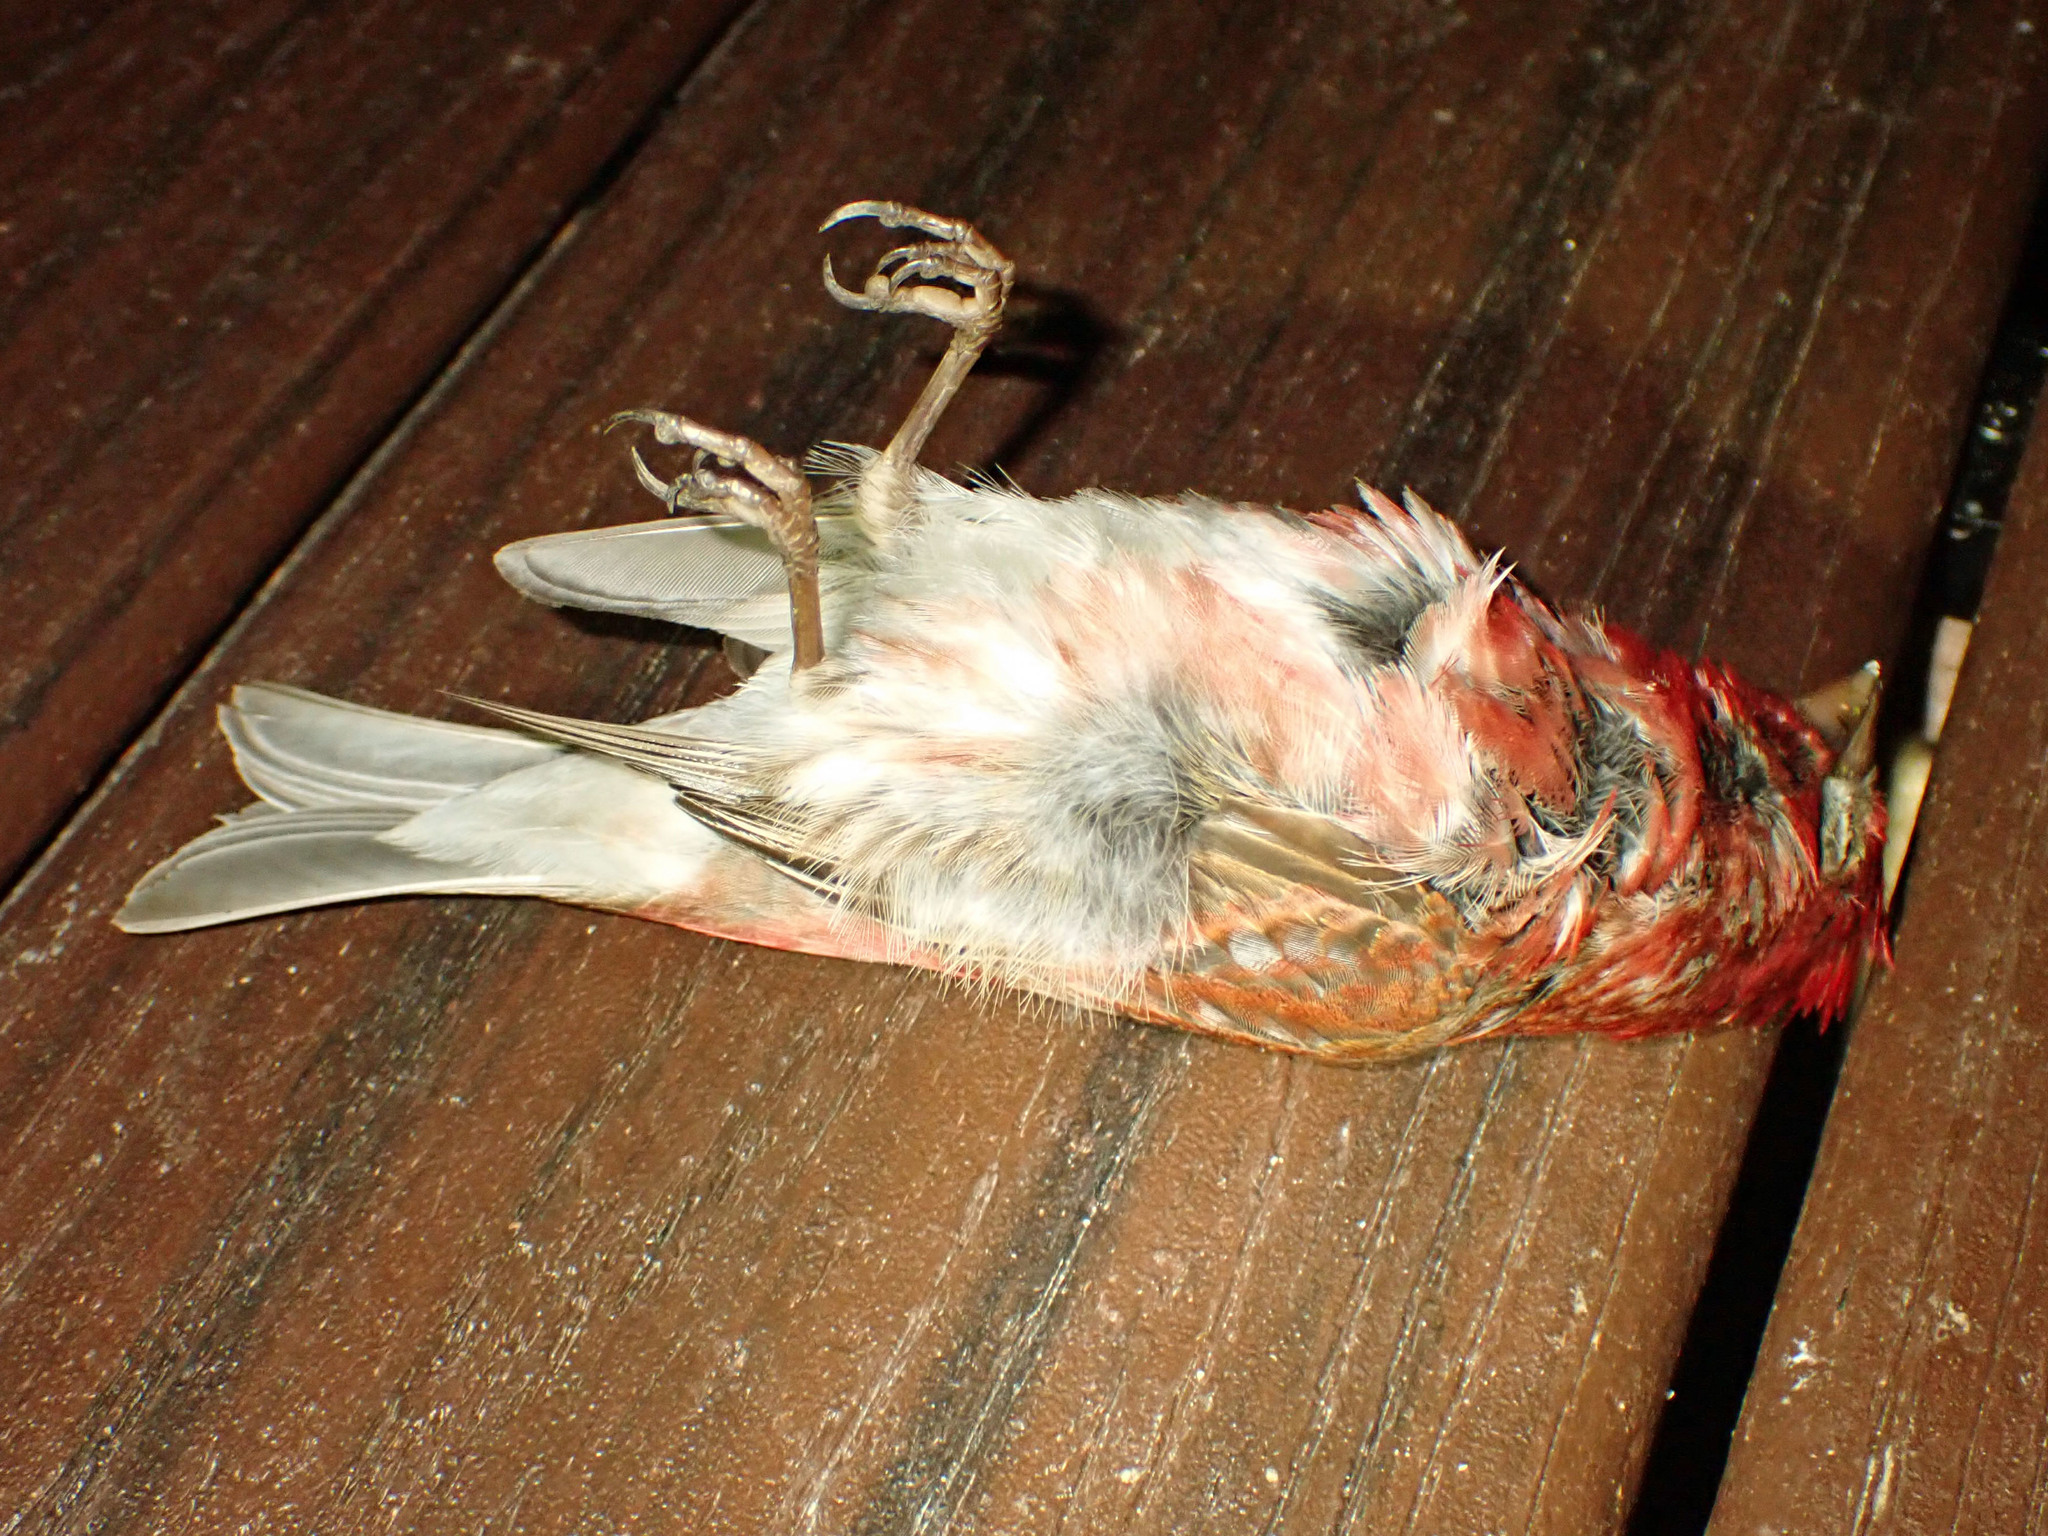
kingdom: Animalia
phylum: Chordata
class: Aves
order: Passeriformes
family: Fringillidae
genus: Haemorhous
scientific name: Haemorhous purpureus
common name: Purple finch
